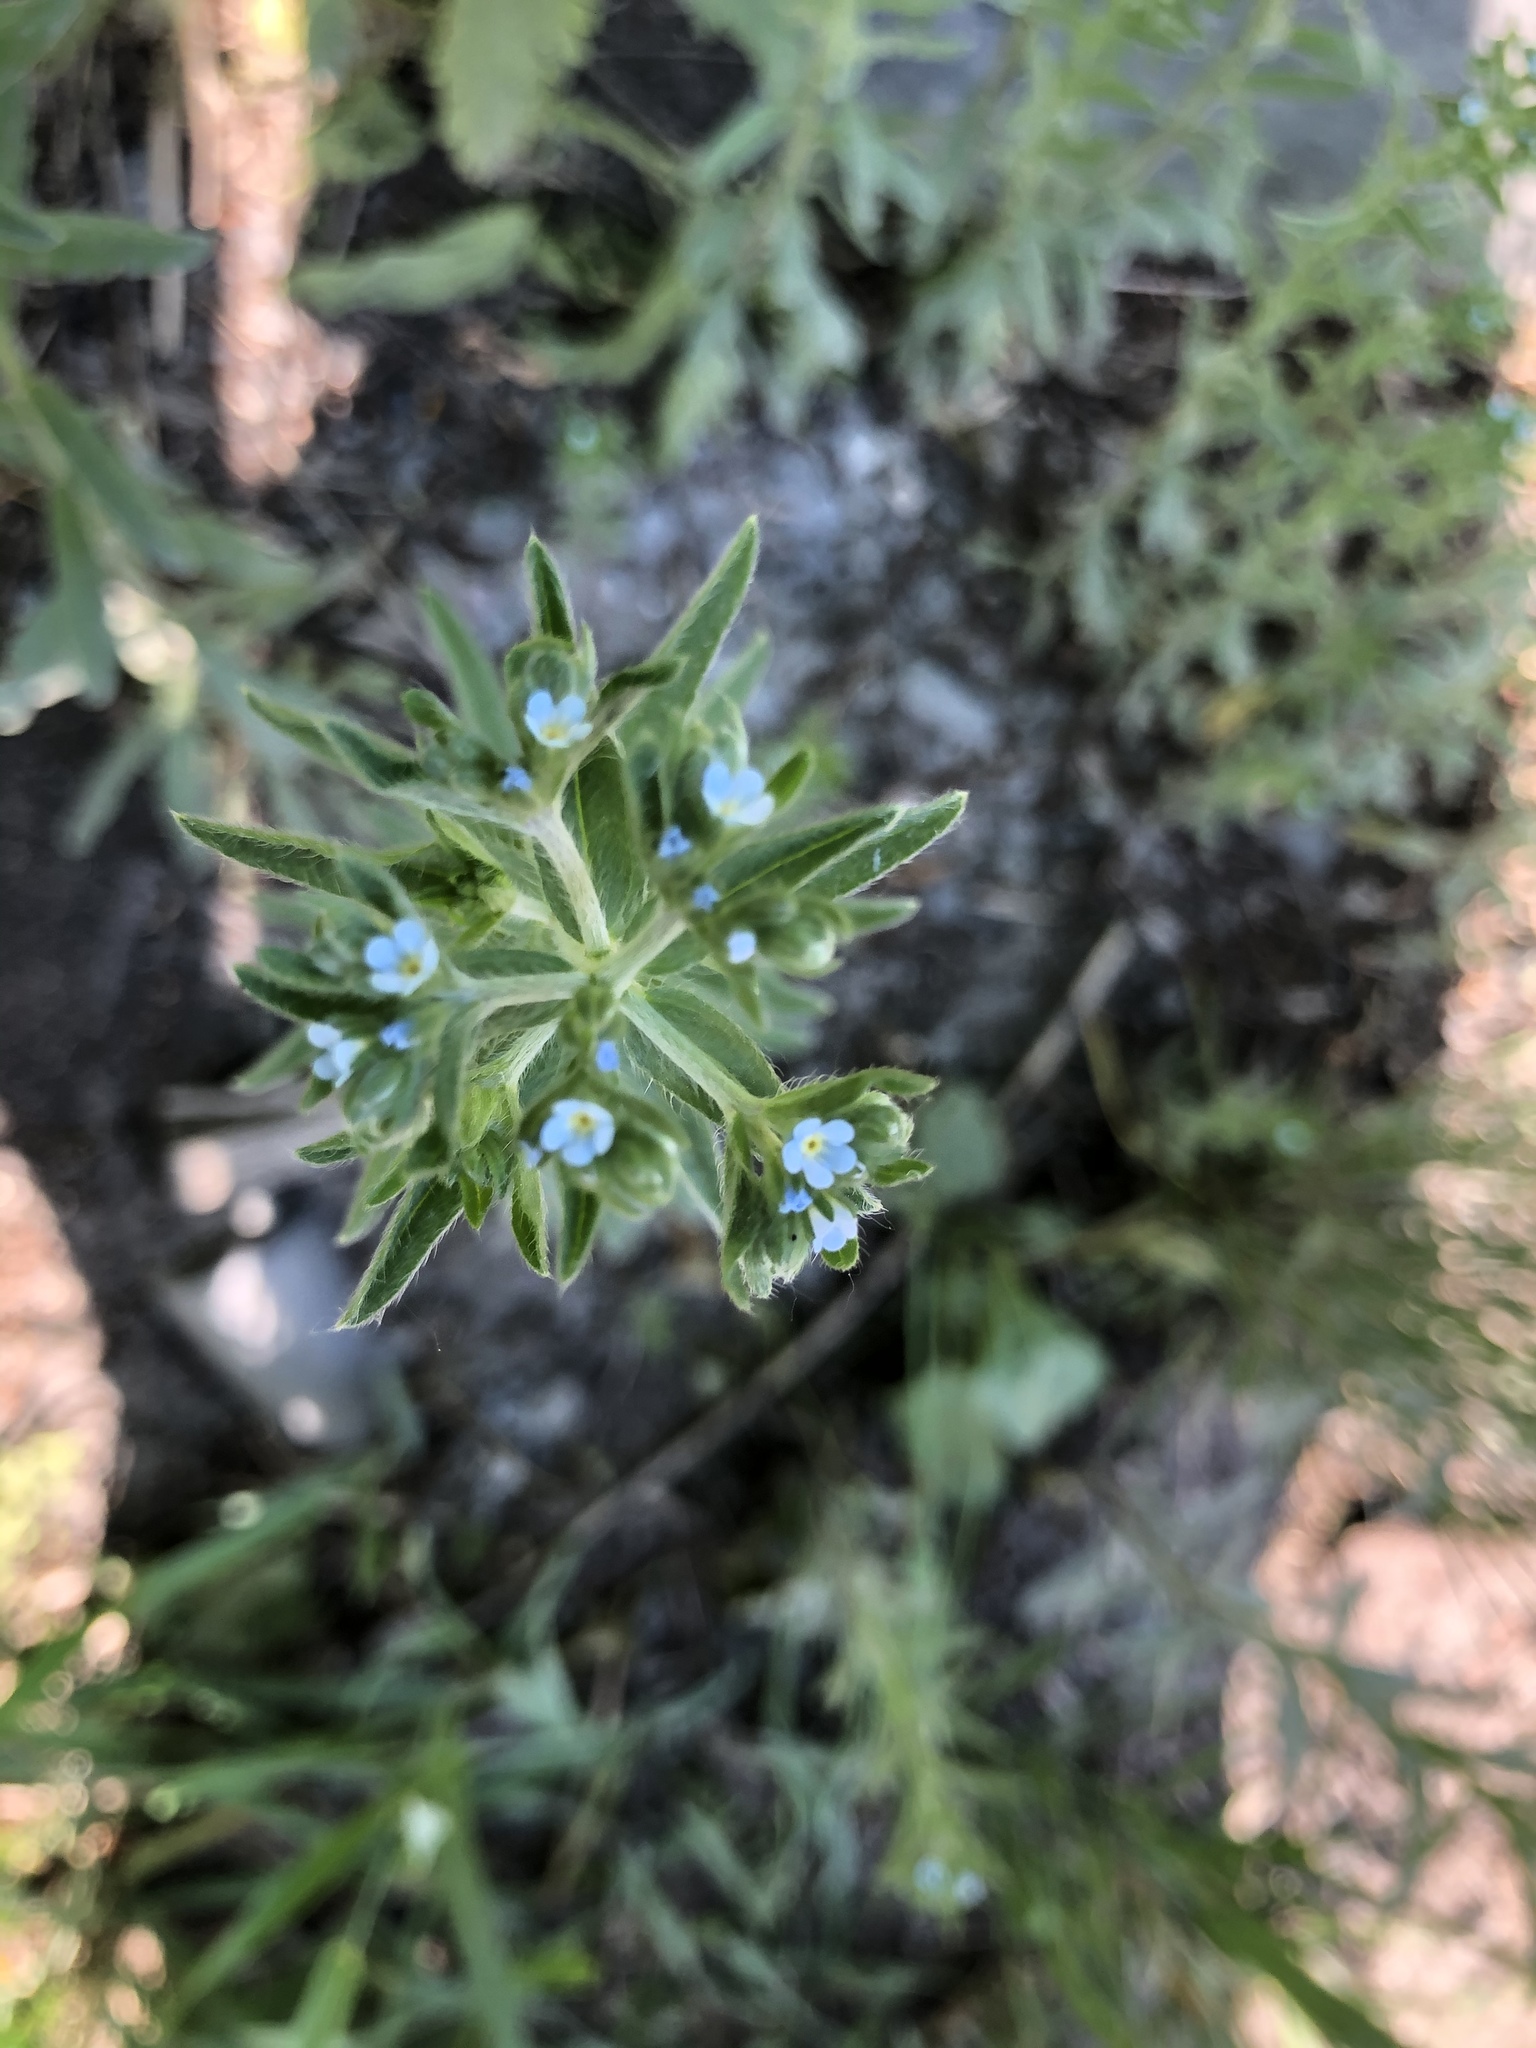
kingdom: Plantae
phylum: Tracheophyta
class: Magnoliopsida
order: Boraginales
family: Boraginaceae
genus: Lappula
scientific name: Lappula squarrosa
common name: European stickseed
